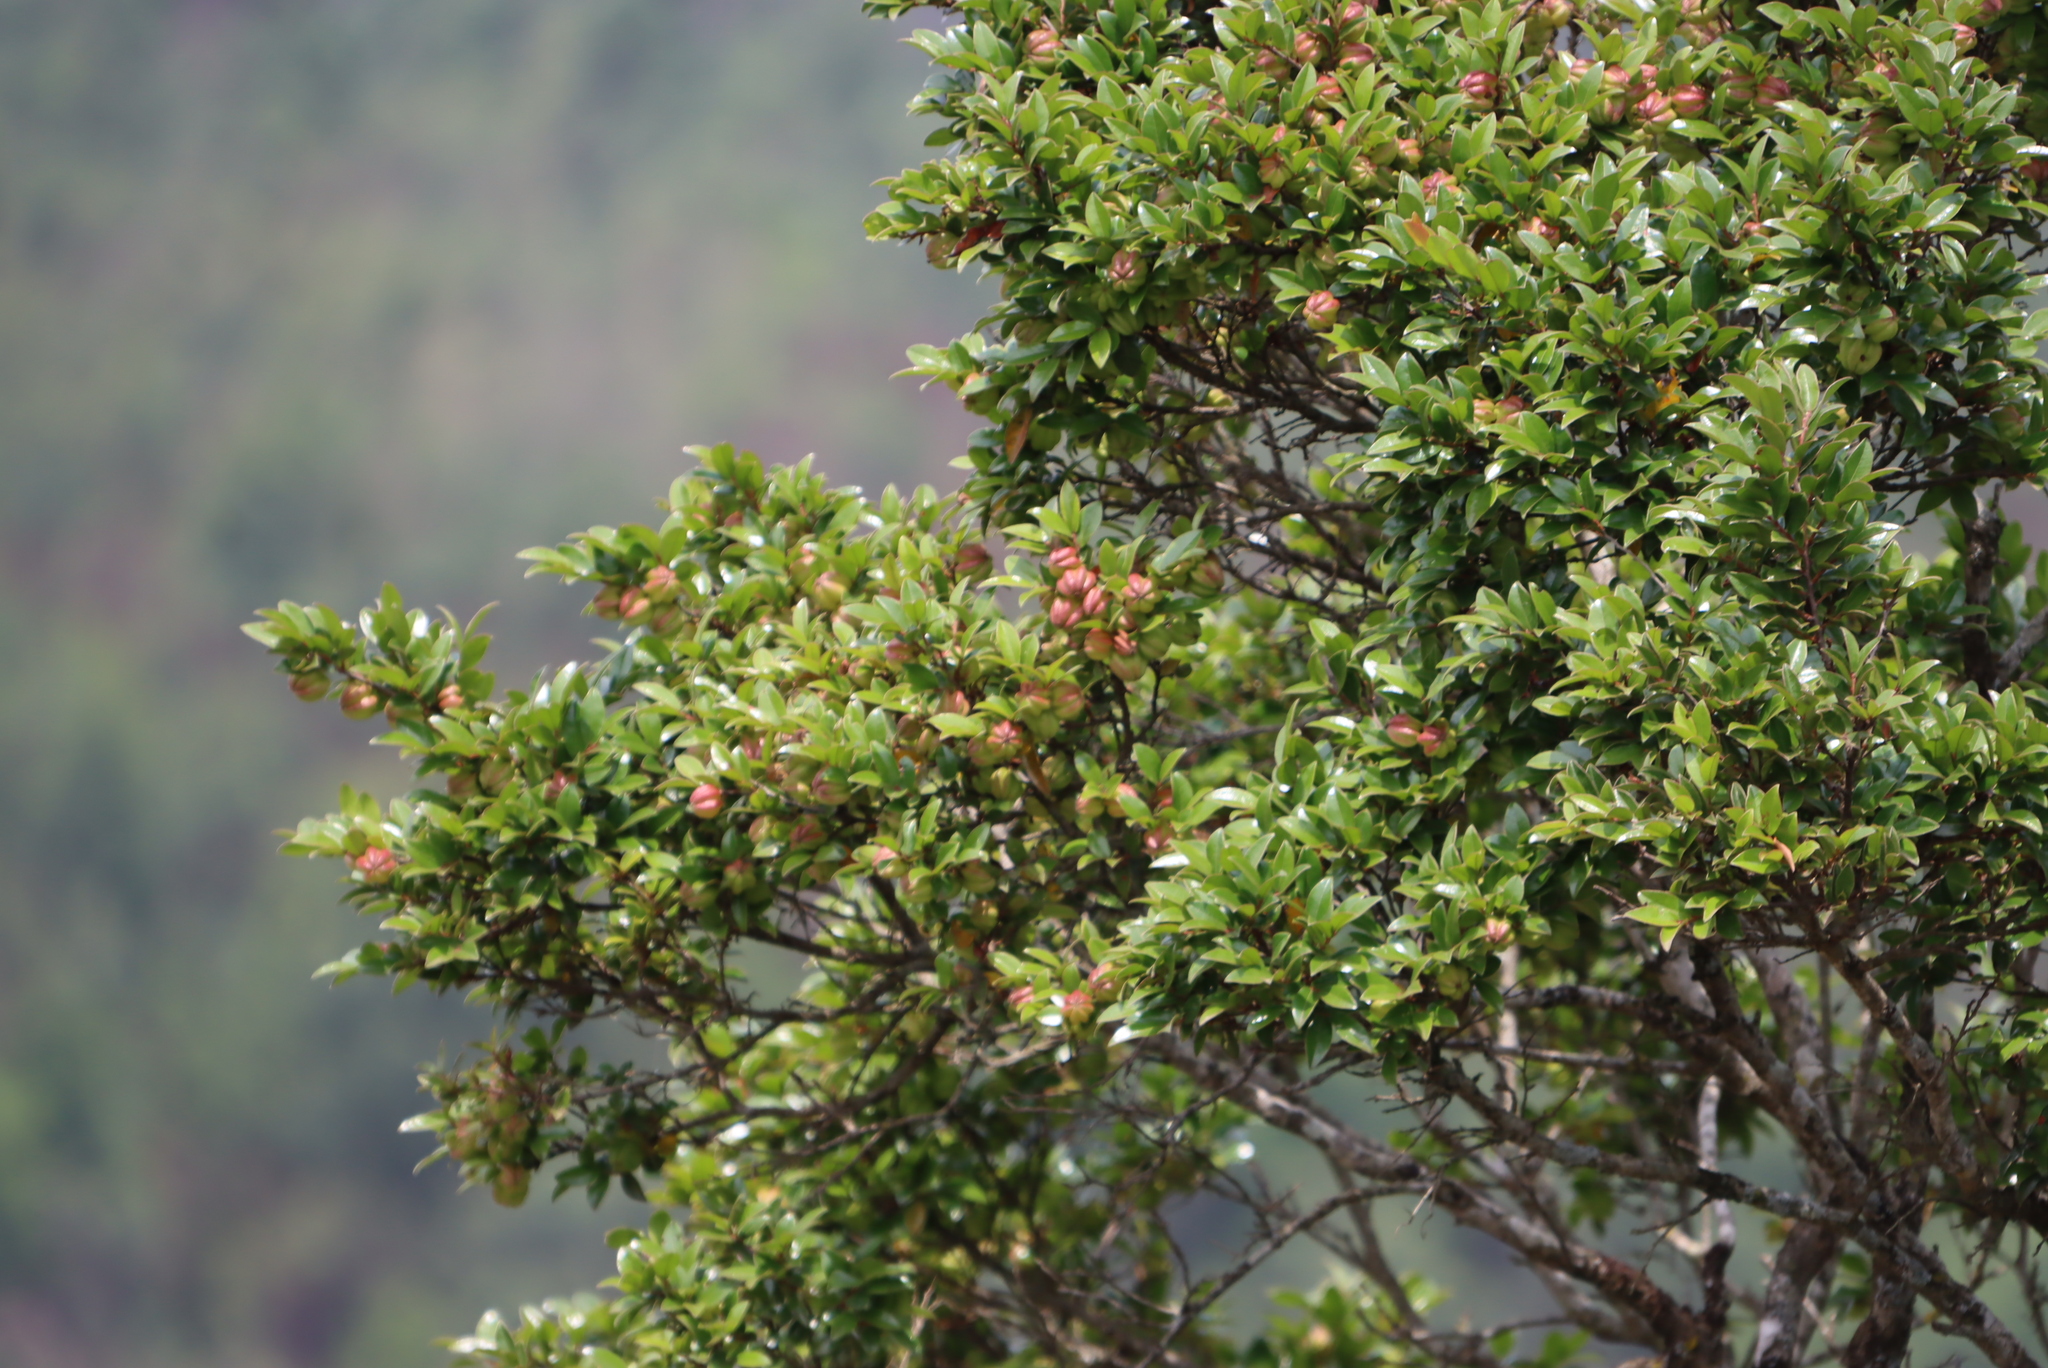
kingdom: Plantae
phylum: Tracheophyta
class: Magnoliopsida
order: Ericales
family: Ebenaceae
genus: Diospyros
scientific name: Diospyros whyteana
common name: Bladder-nut
